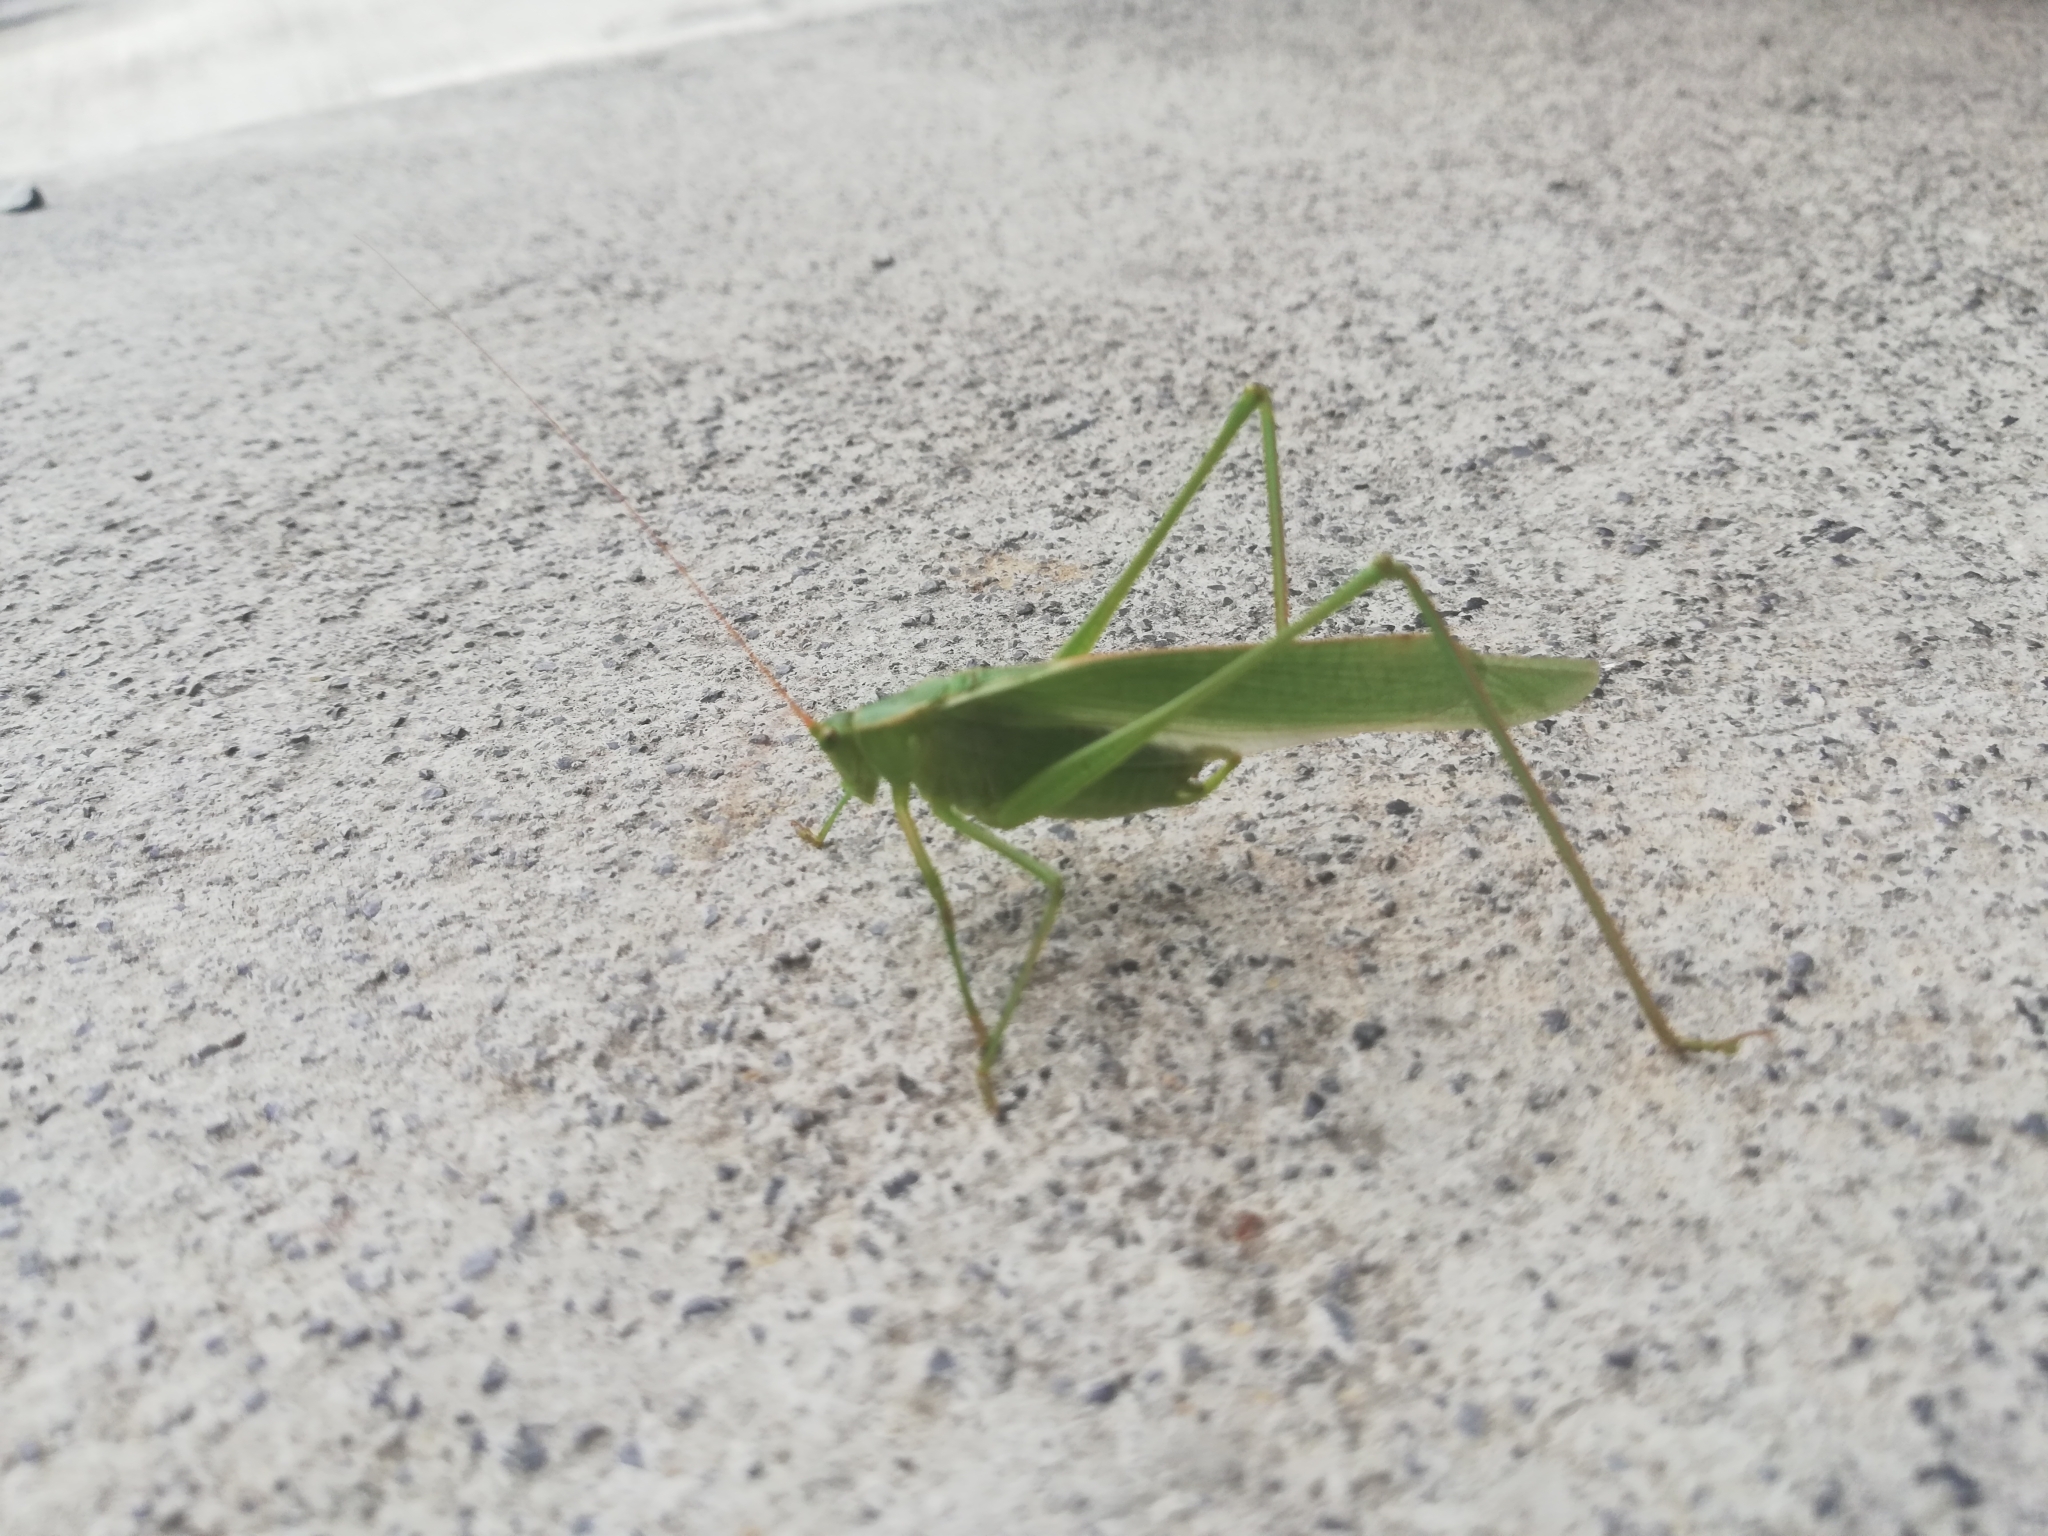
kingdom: Animalia
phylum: Arthropoda
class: Insecta
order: Orthoptera
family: Tettigoniidae
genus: Scudderia
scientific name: Scudderia mexicana
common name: Mexican bush katydid
